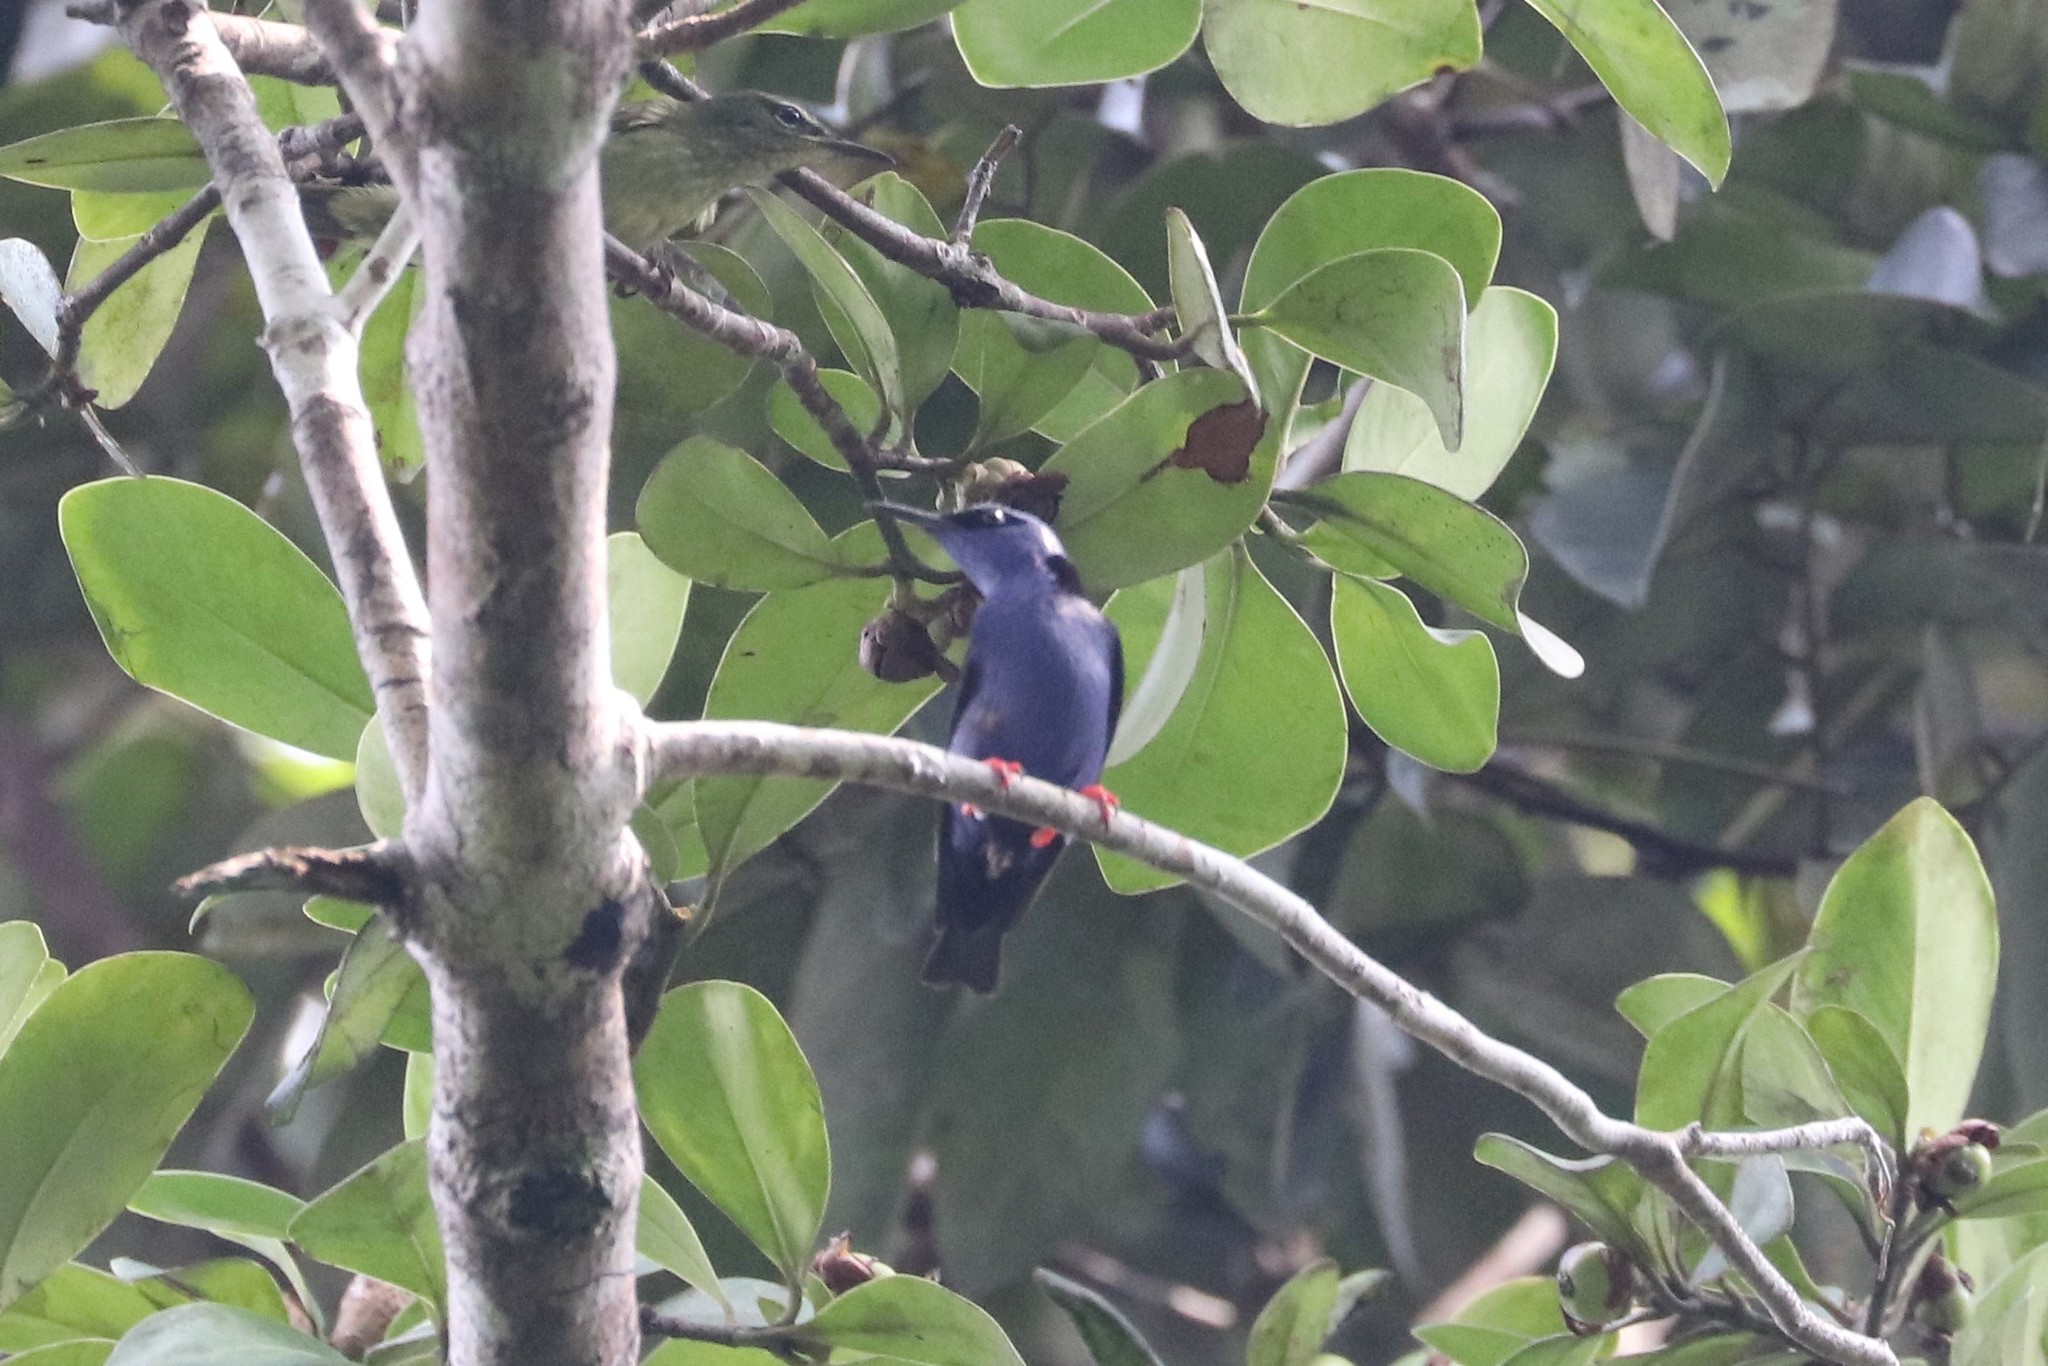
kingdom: Animalia
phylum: Chordata
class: Aves
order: Passeriformes
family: Thraupidae
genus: Cyanerpes
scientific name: Cyanerpes cyaneus
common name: Red-legged honeycreeper
